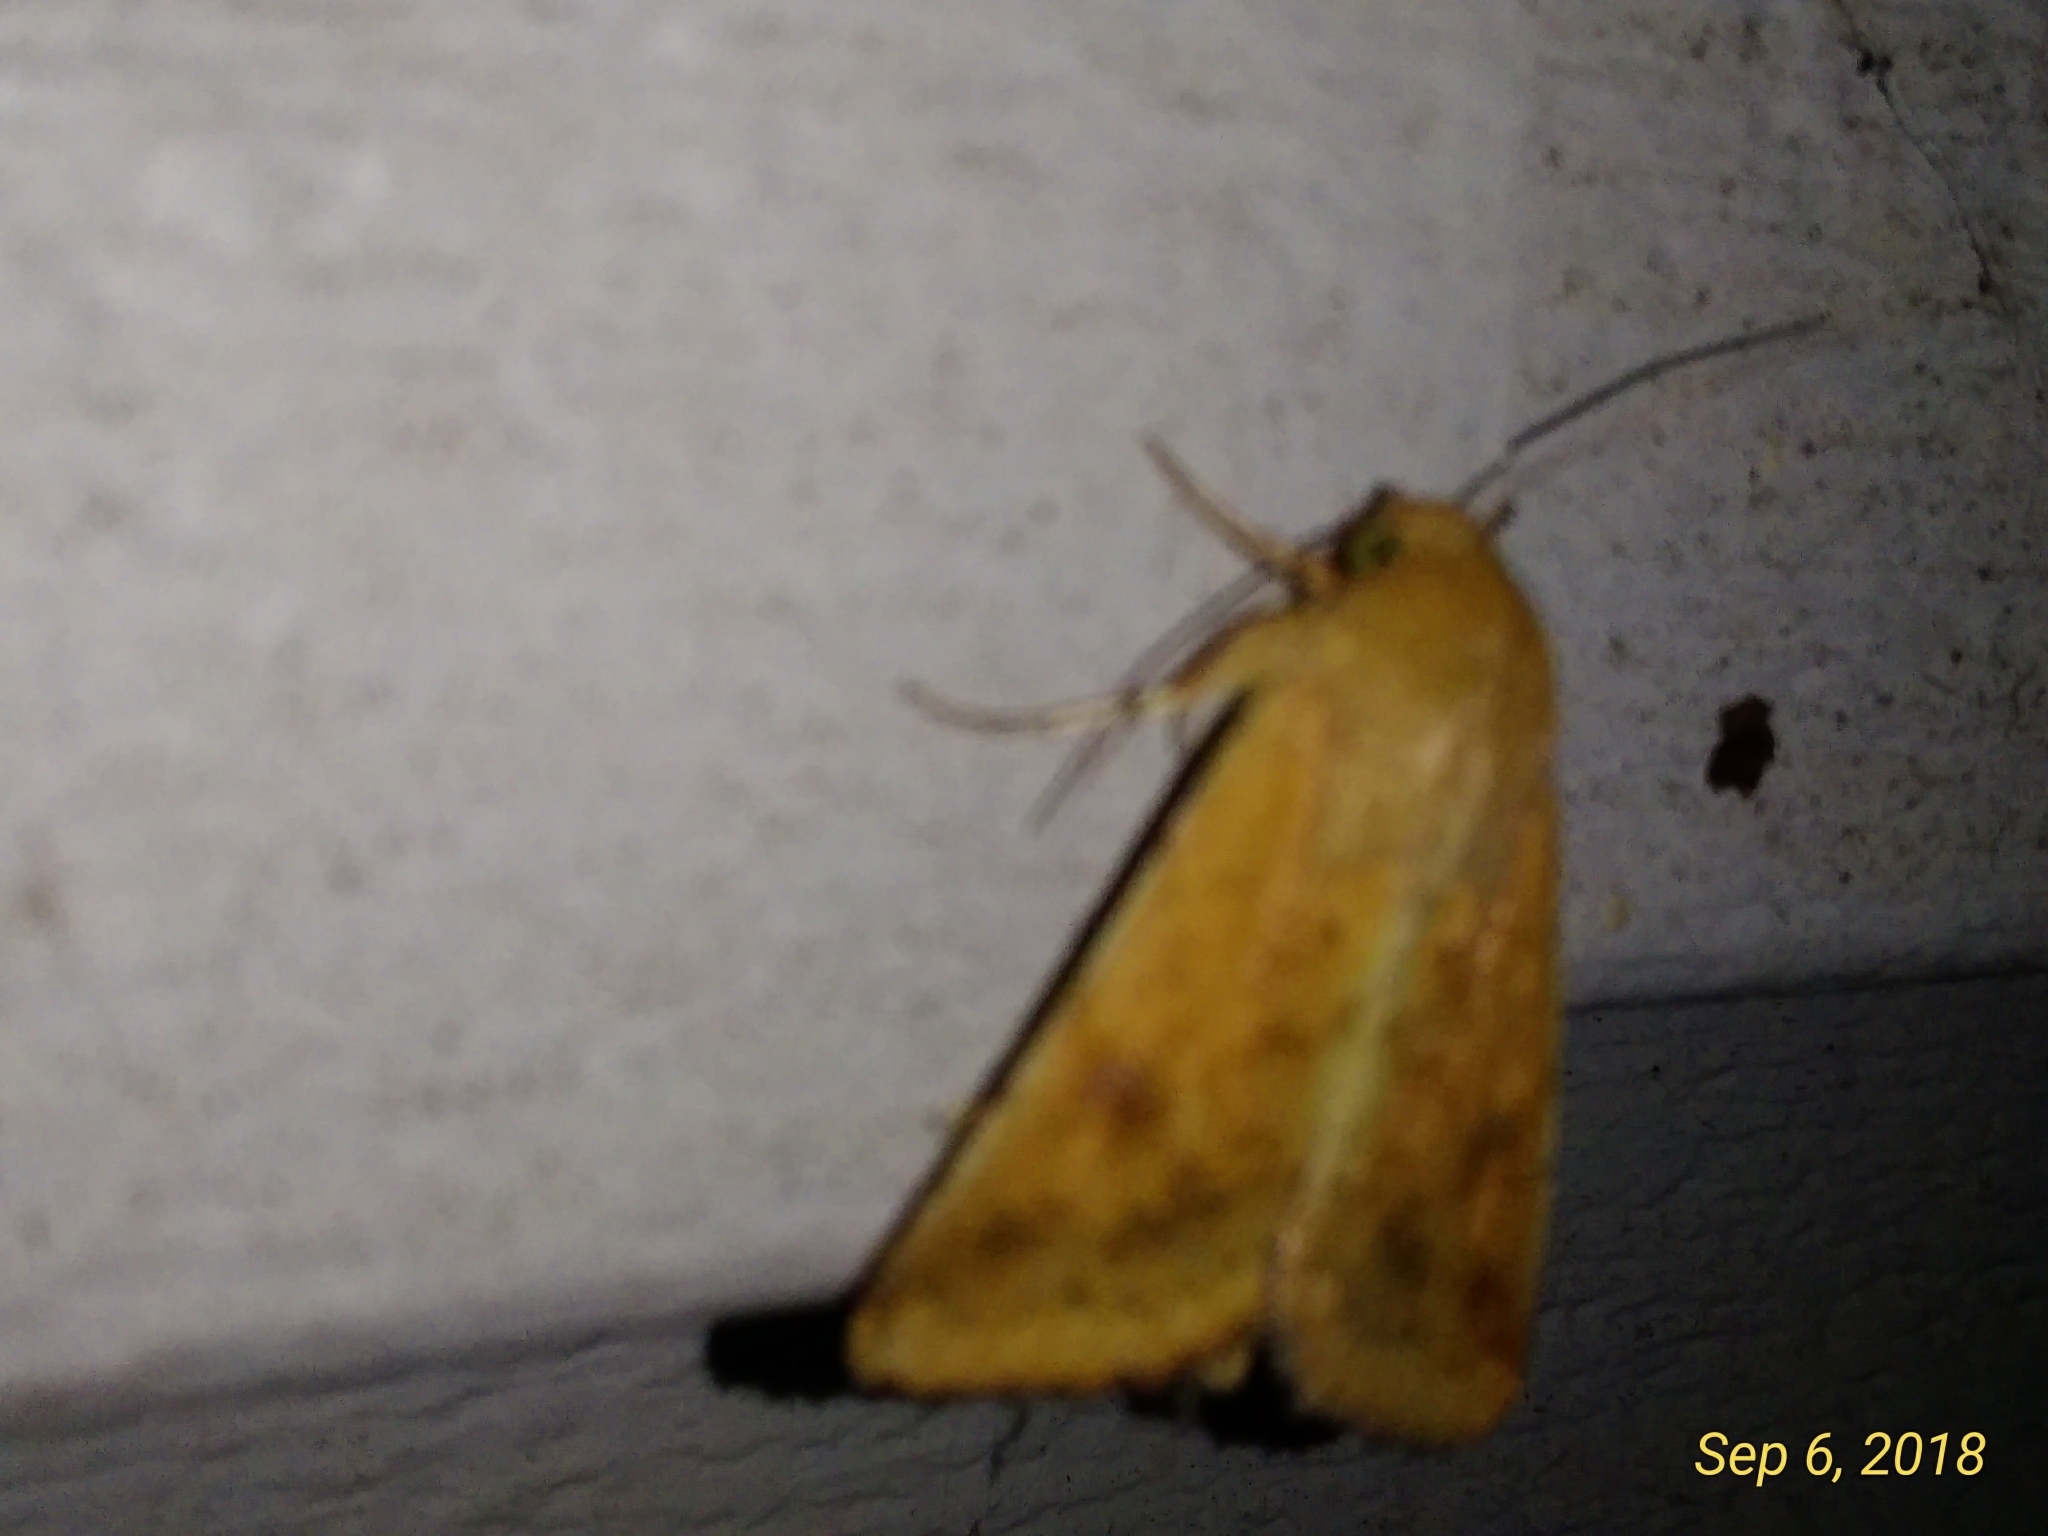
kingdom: Animalia
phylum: Arthropoda
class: Insecta
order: Lepidoptera
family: Noctuidae
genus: Helicoverpa
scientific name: Helicoverpa zea
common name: Bollworm
